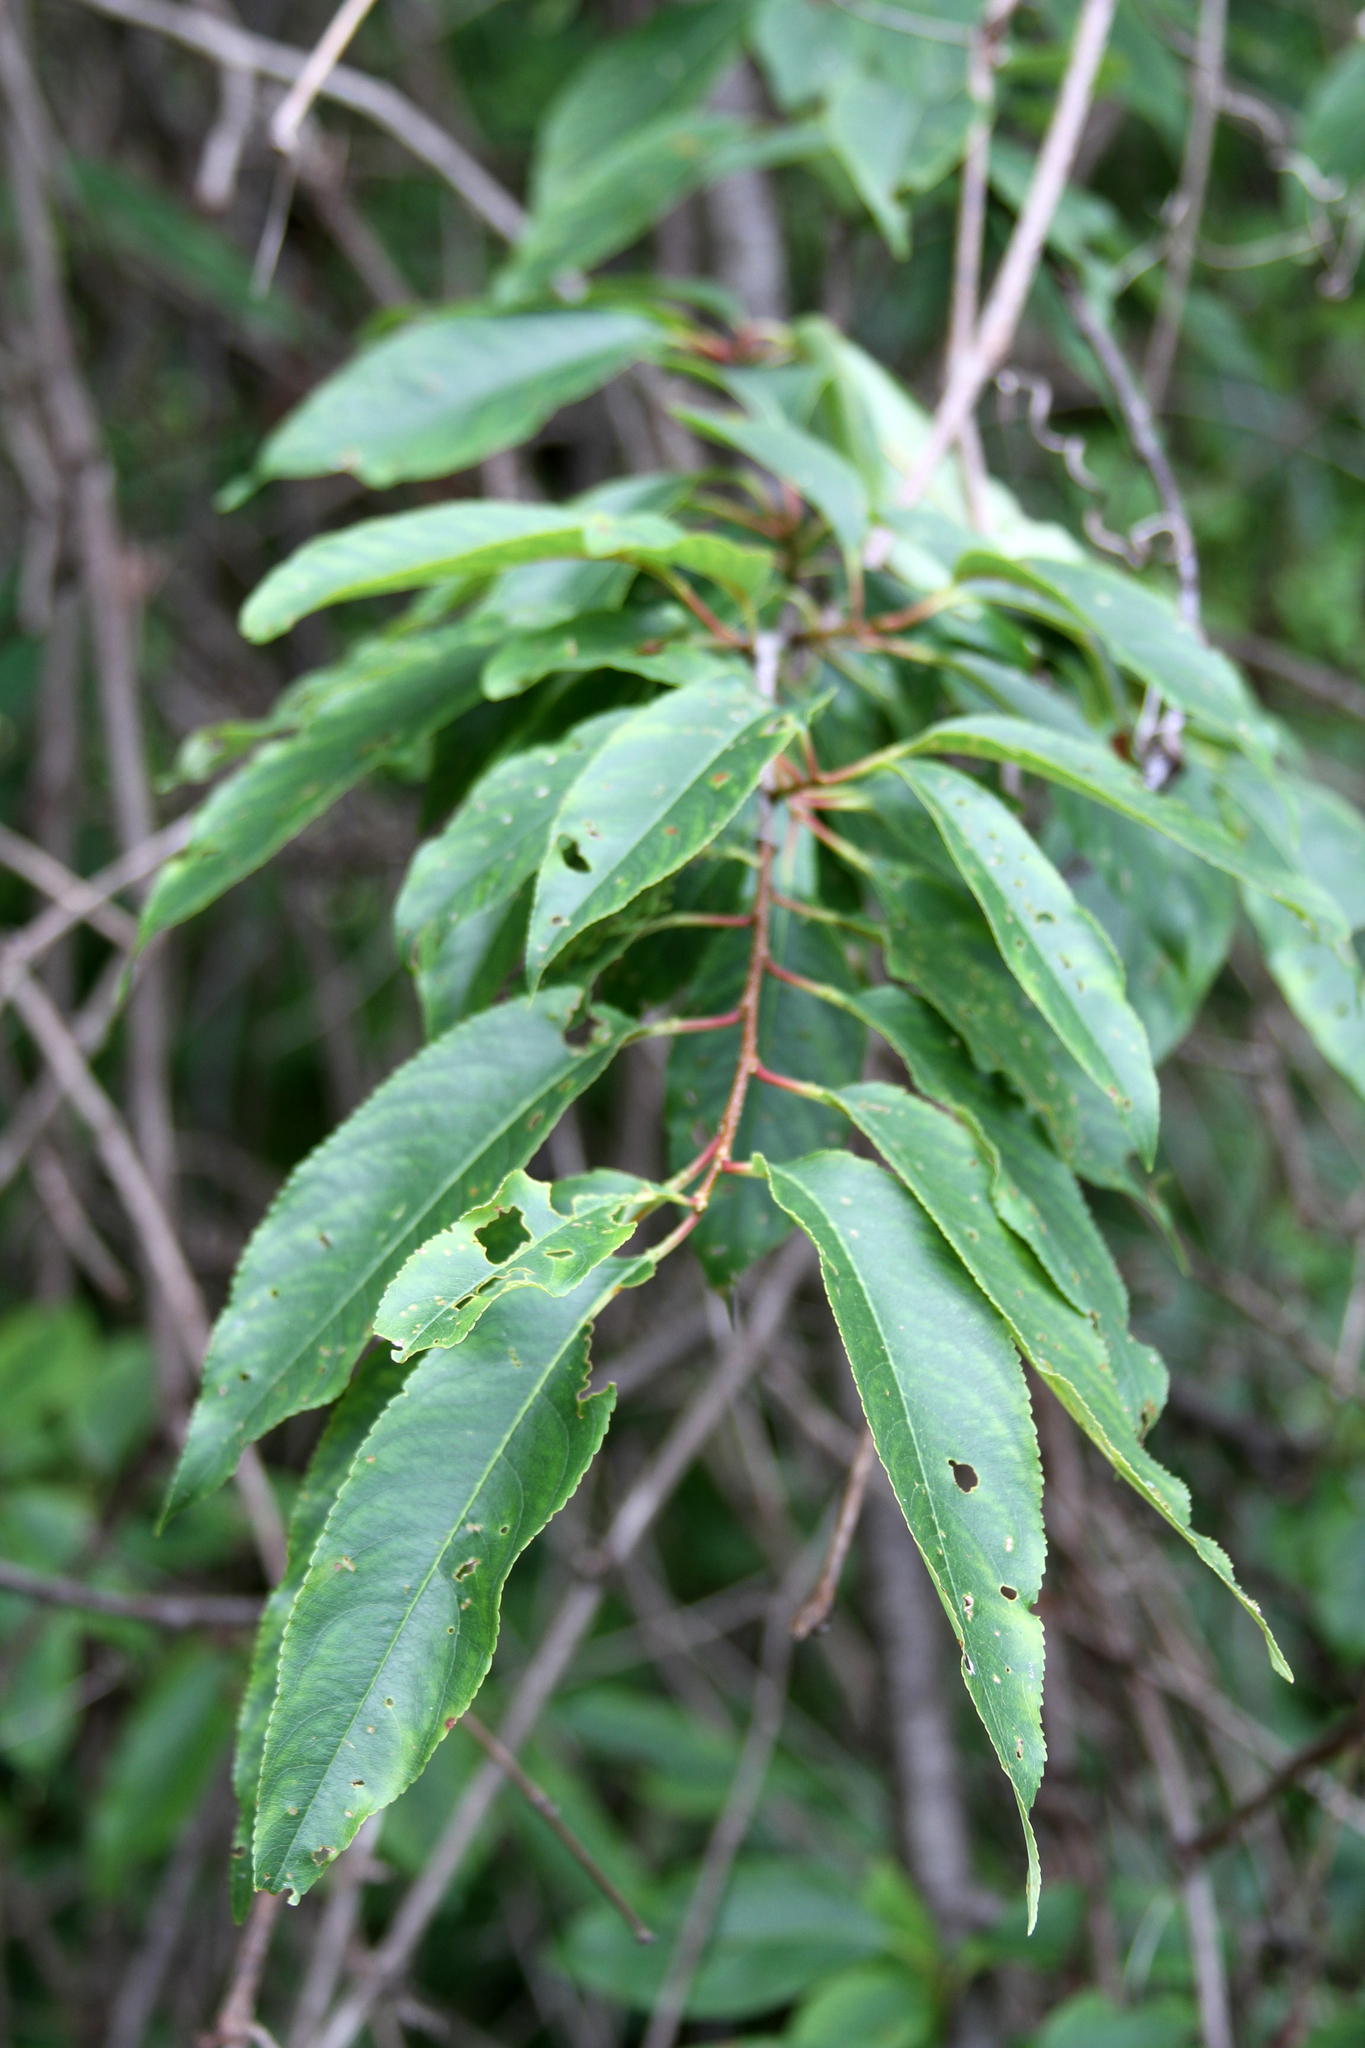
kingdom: Plantae
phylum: Tracheophyta
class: Magnoliopsida
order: Rosales
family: Rosaceae
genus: Prunus
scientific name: Prunus serotina
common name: Black cherry
